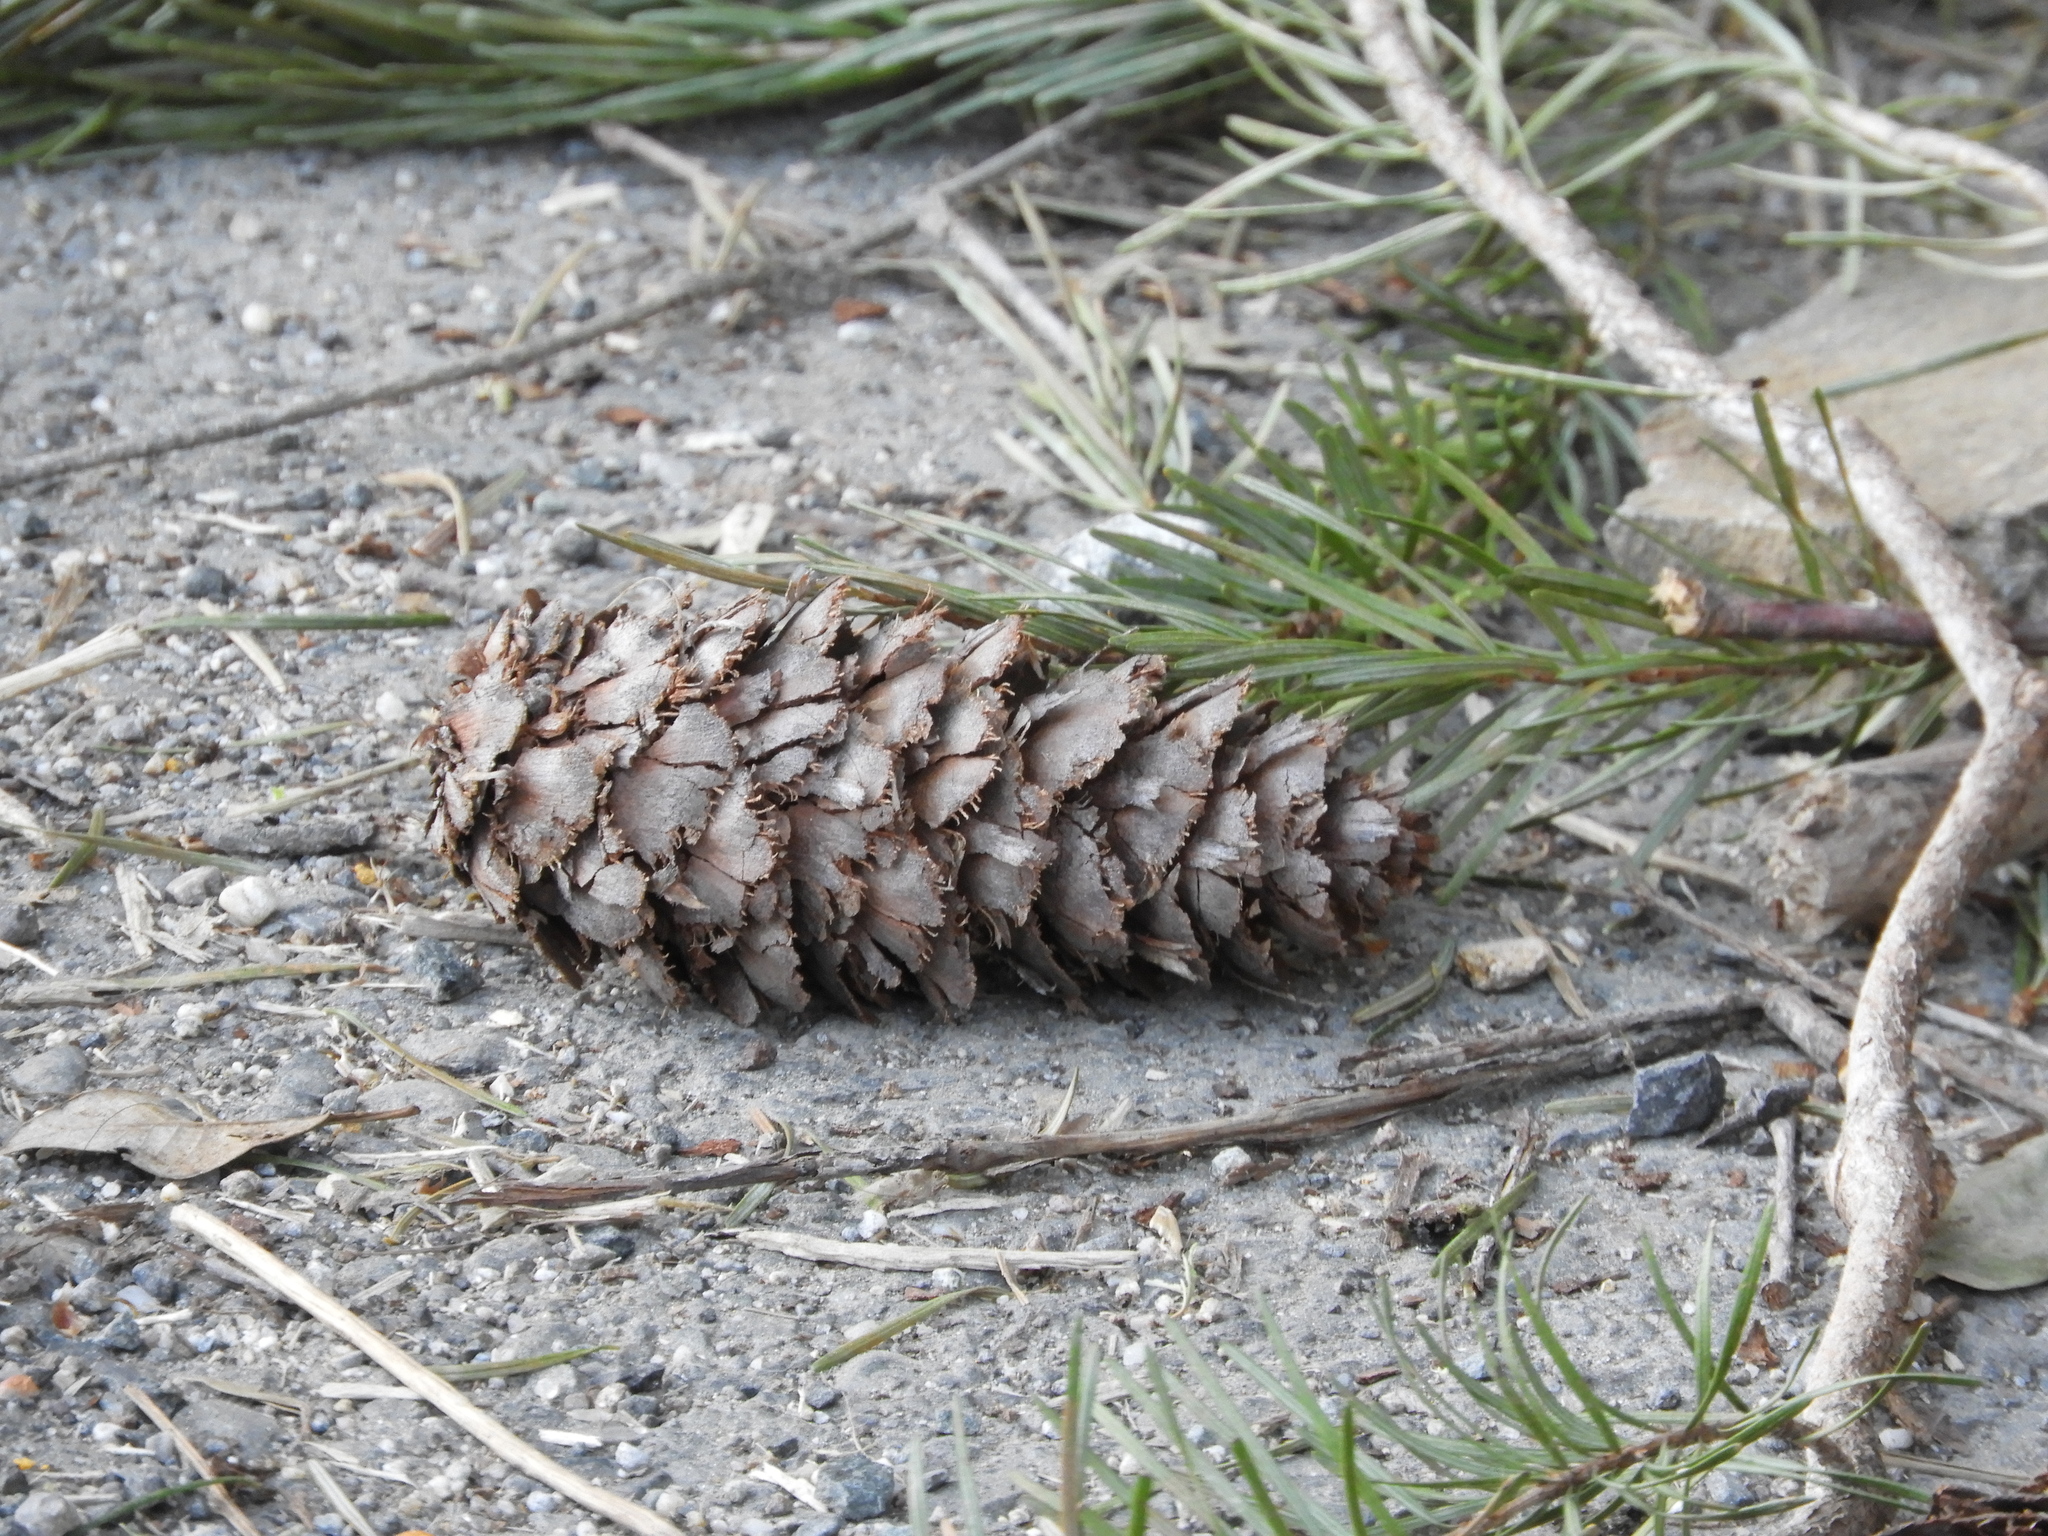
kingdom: Plantae
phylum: Tracheophyta
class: Pinopsida
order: Pinales
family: Pinaceae
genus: Pseudotsuga
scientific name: Pseudotsuga menziesii
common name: Douglas fir
